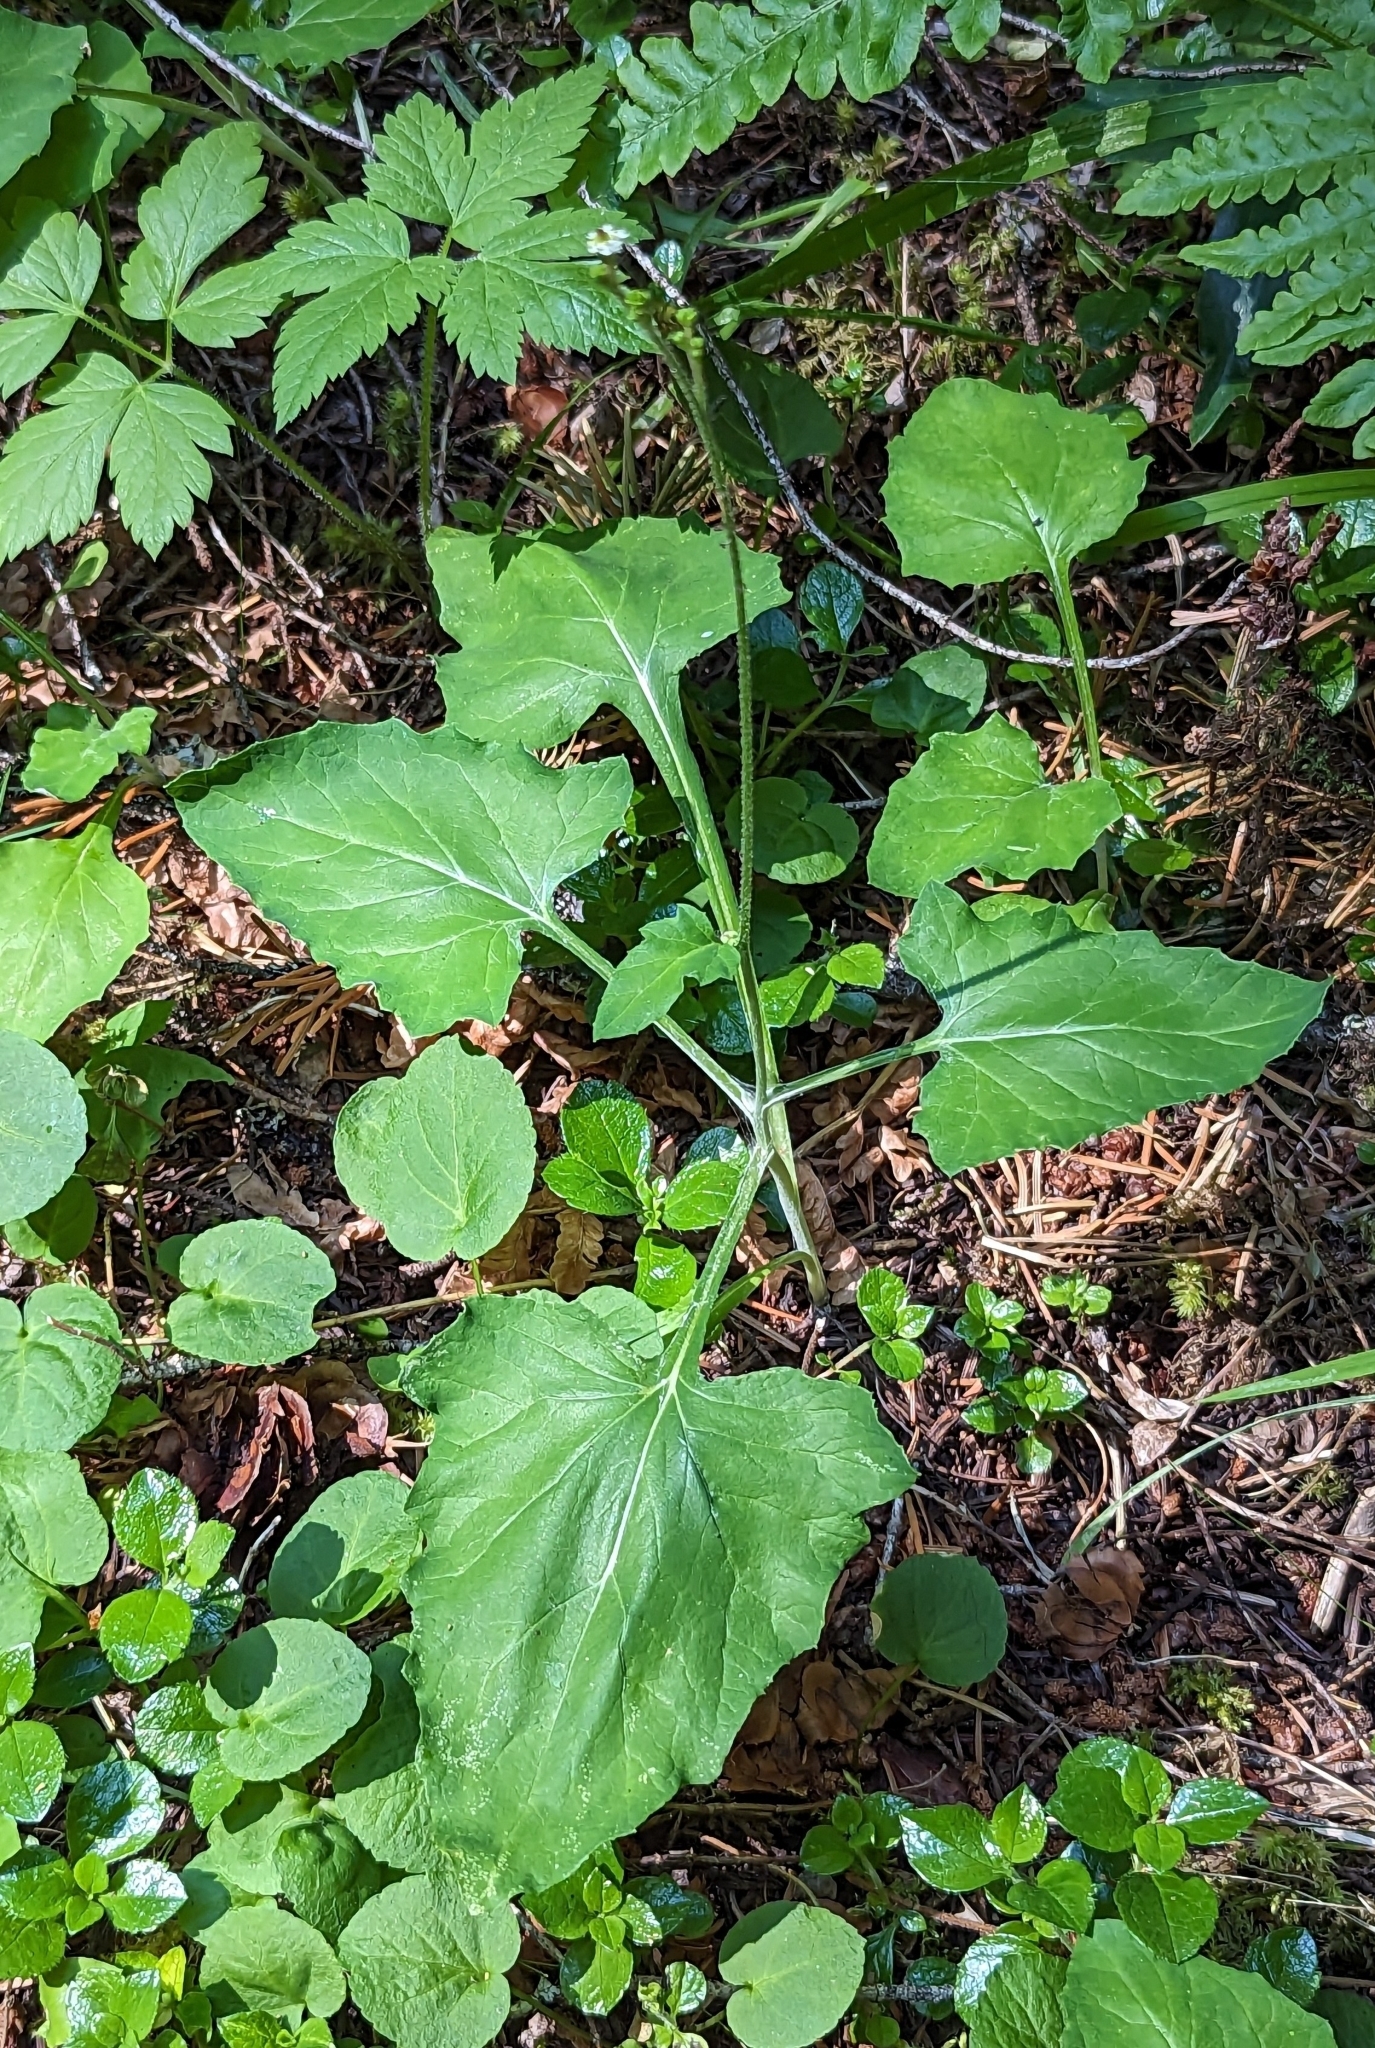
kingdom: Plantae
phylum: Tracheophyta
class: Magnoliopsida
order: Asterales
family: Asteraceae
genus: Adenocaulon
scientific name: Adenocaulon bicolor
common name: Trailplant
